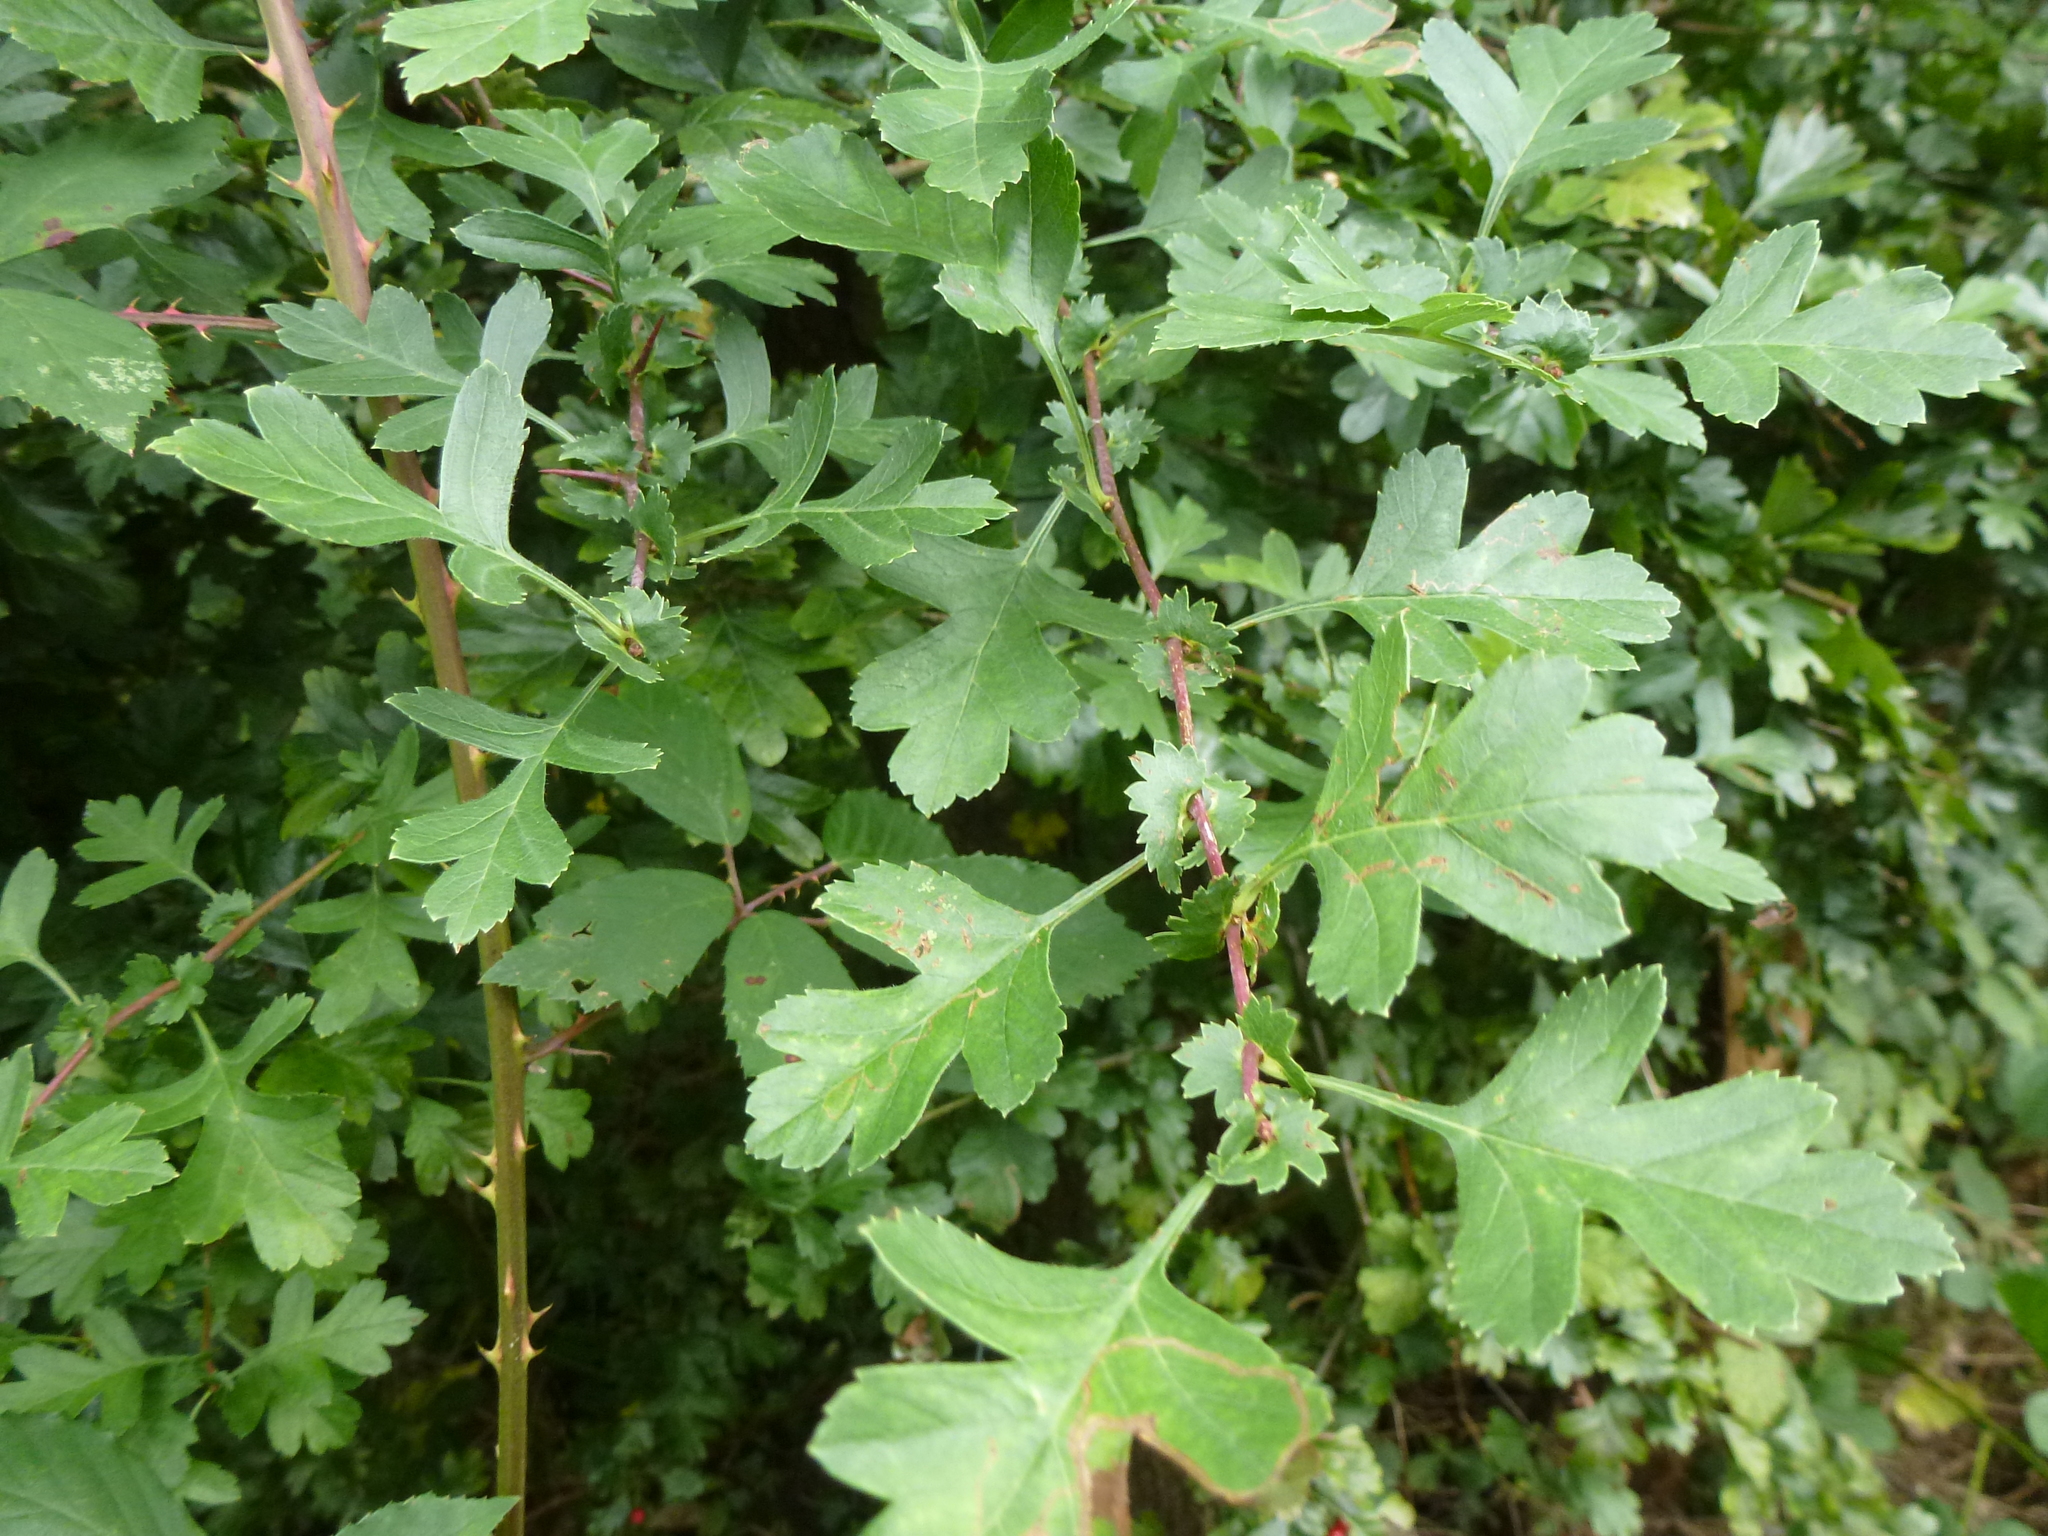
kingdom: Plantae
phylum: Tracheophyta
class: Magnoliopsida
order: Rosales
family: Rosaceae
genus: Crataegus
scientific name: Crataegus monogyna
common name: Hawthorn
